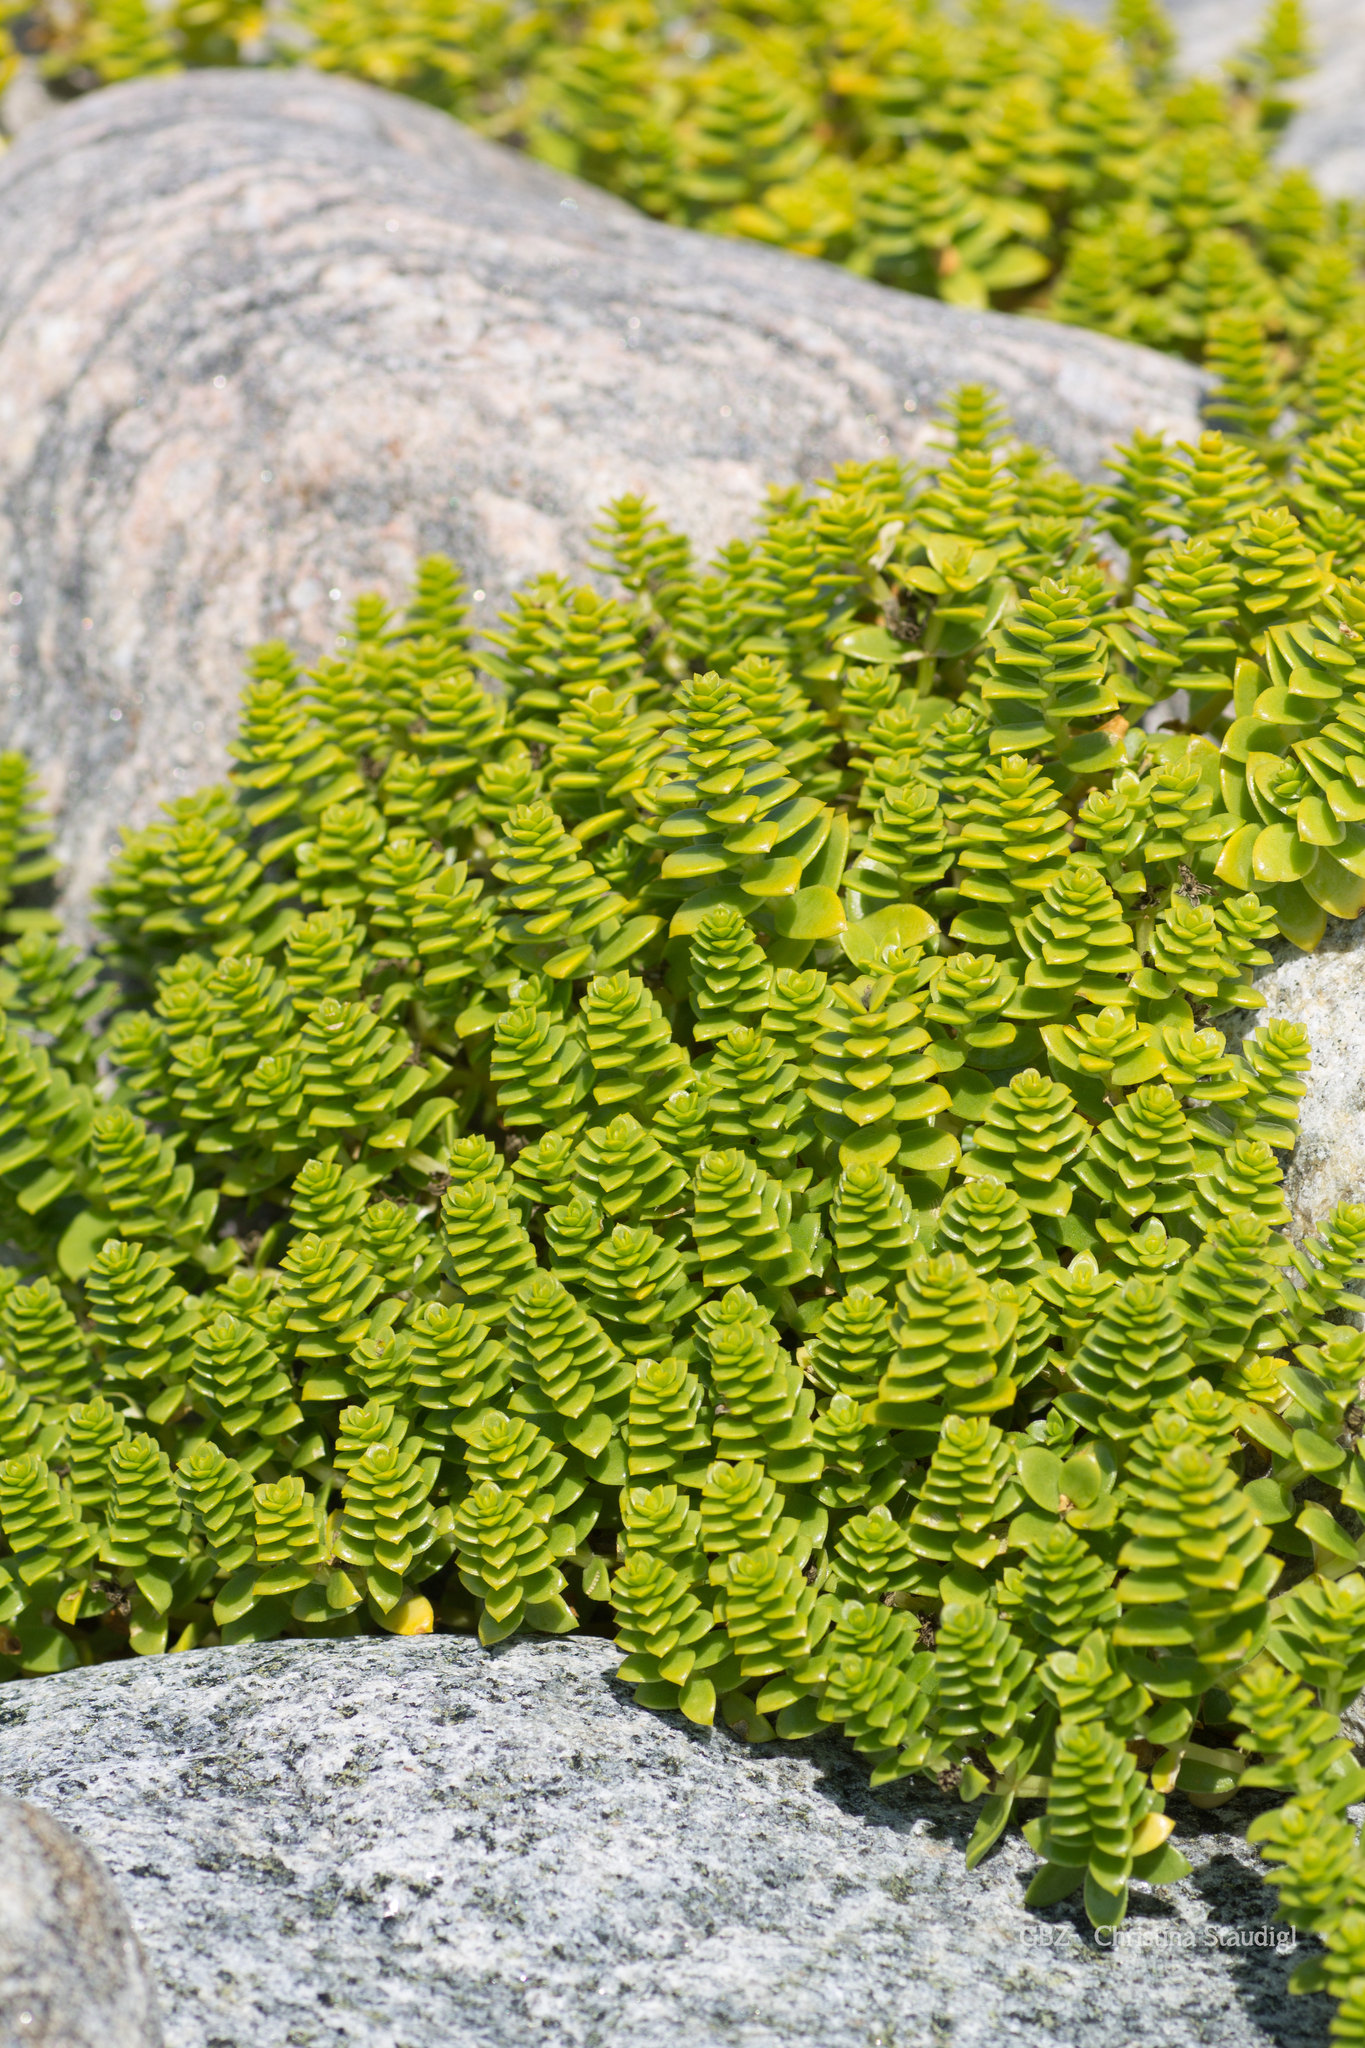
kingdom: Plantae
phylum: Tracheophyta
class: Magnoliopsida
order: Caryophyllales
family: Caryophyllaceae
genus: Honckenya
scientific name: Honckenya peploides
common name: Sea sandwort
